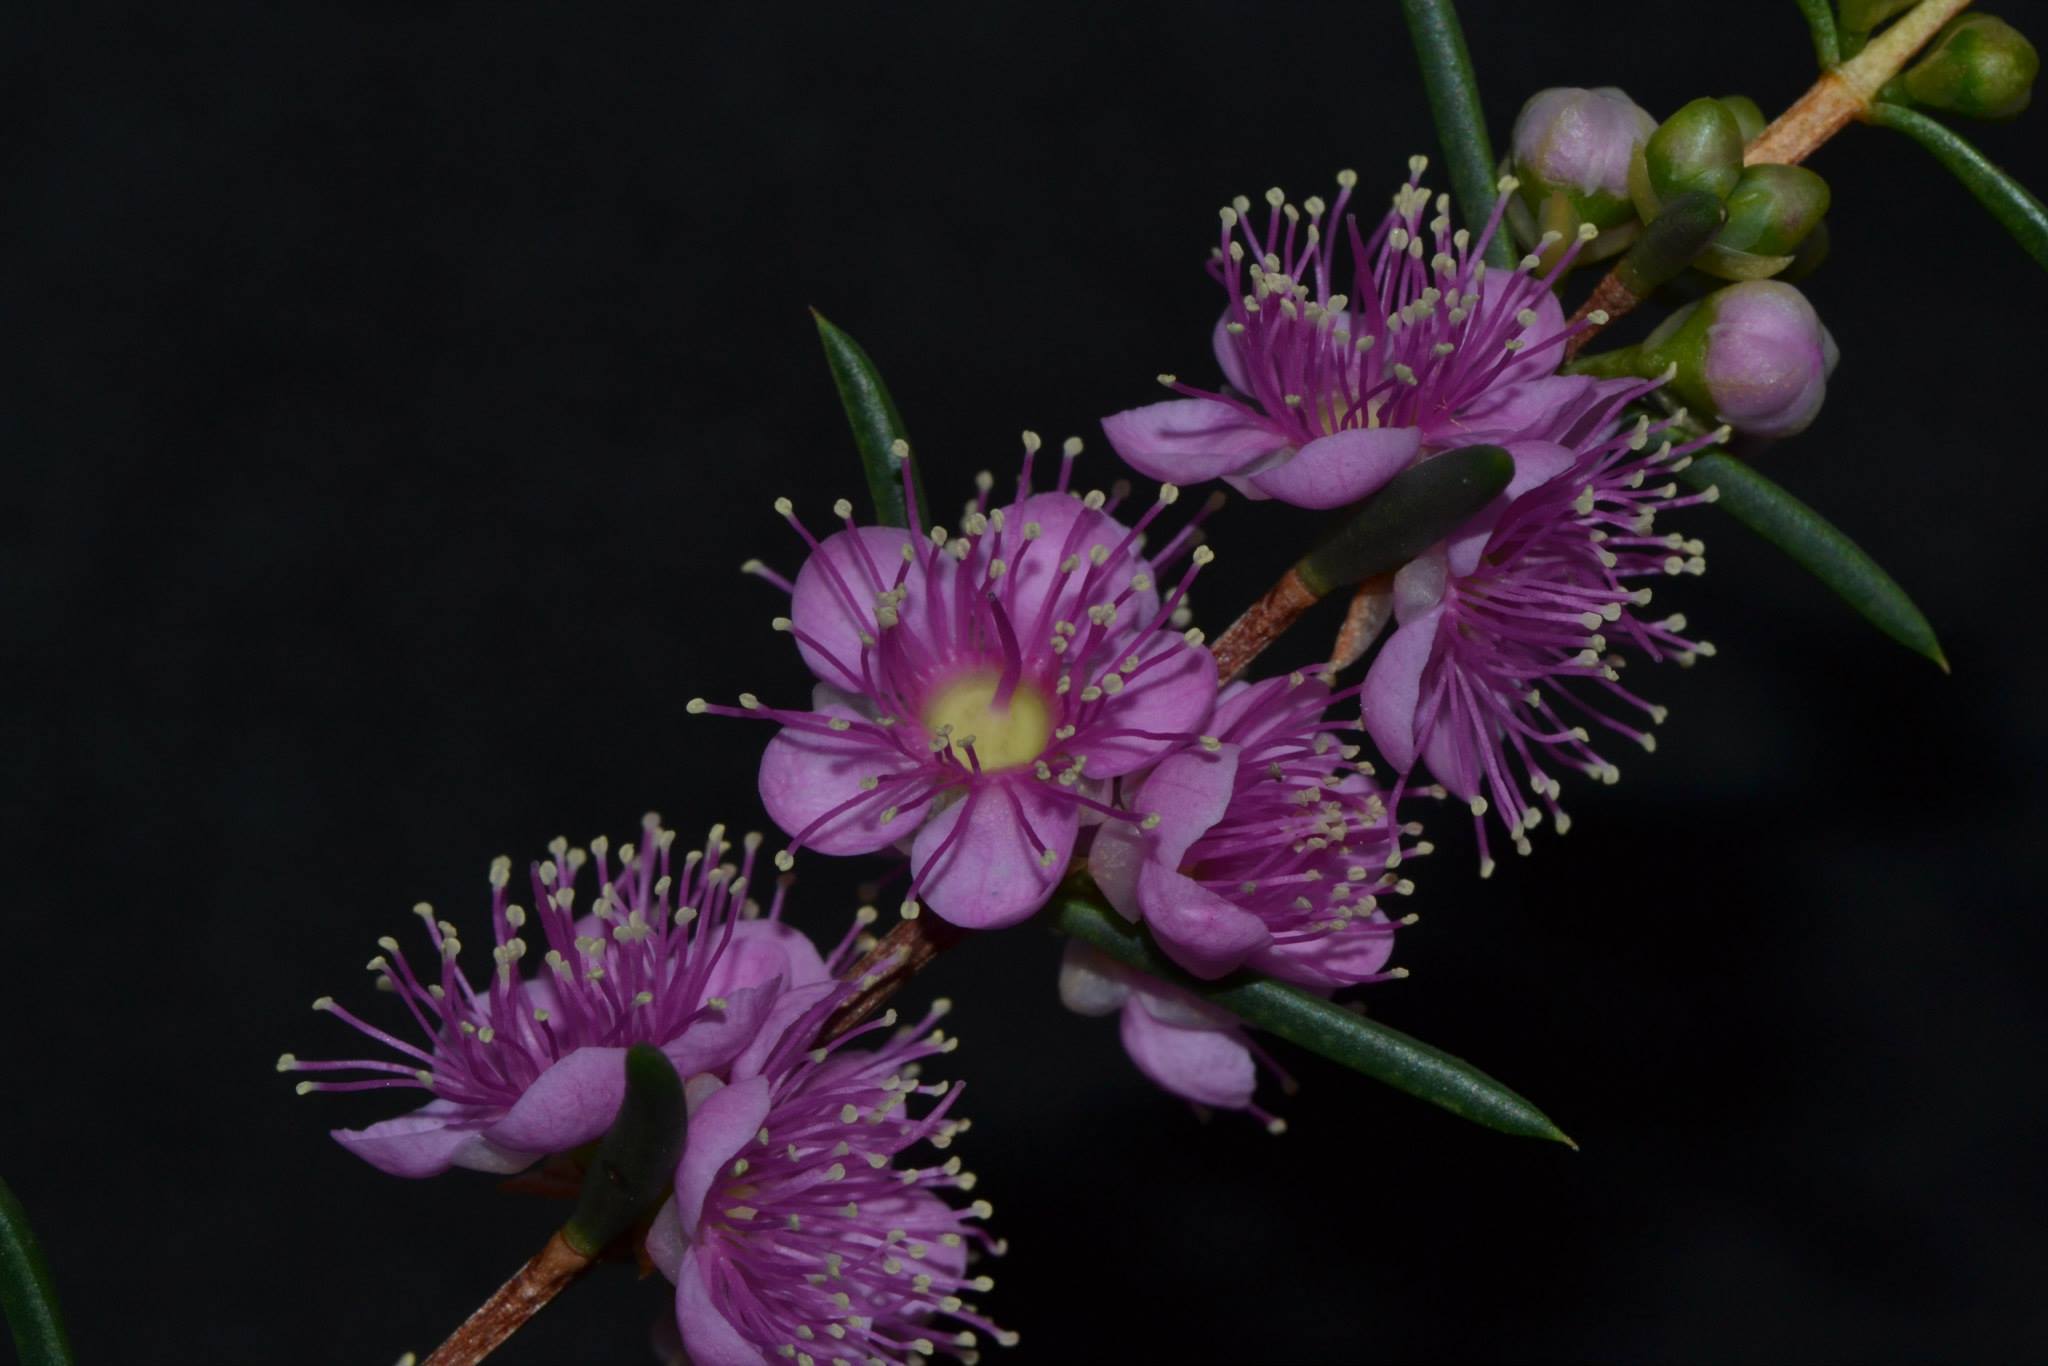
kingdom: Plantae
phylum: Tracheophyta
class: Magnoliopsida
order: Myrtales
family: Myrtaceae
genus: Hypocalymma
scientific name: Hypocalymma robustum
